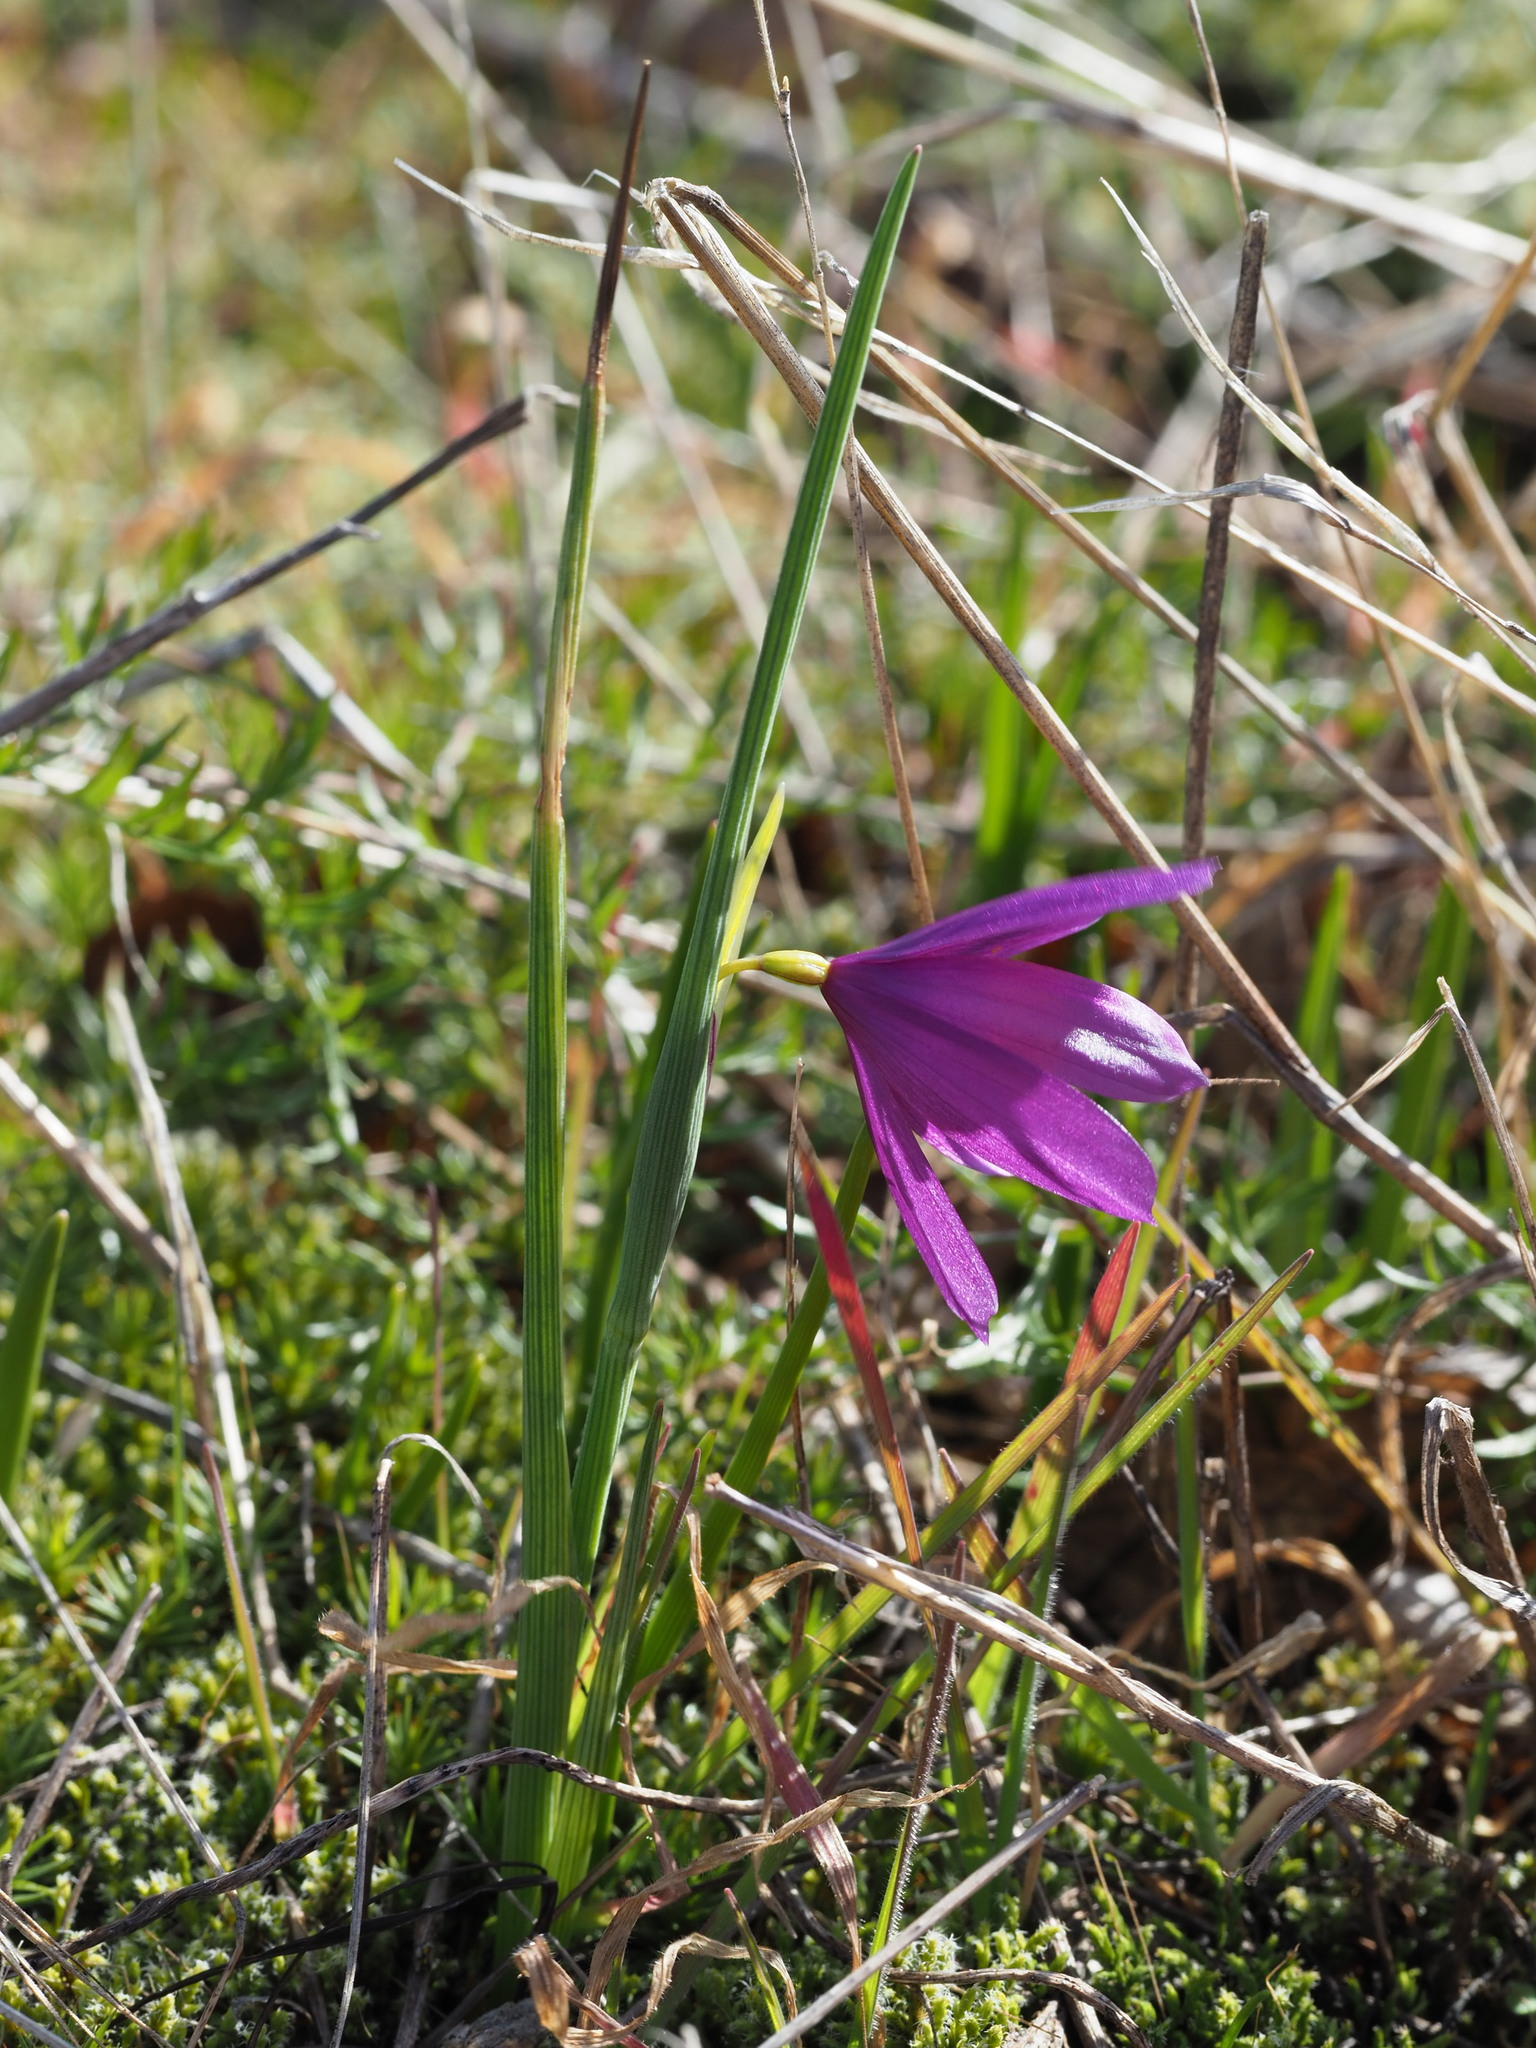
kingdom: Plantae
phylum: Tracheophyta
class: Liliopsida
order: Asparagales
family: Iridaceae
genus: Olsynium
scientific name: Olsynium douglasii
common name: Douglas' grasswidow
